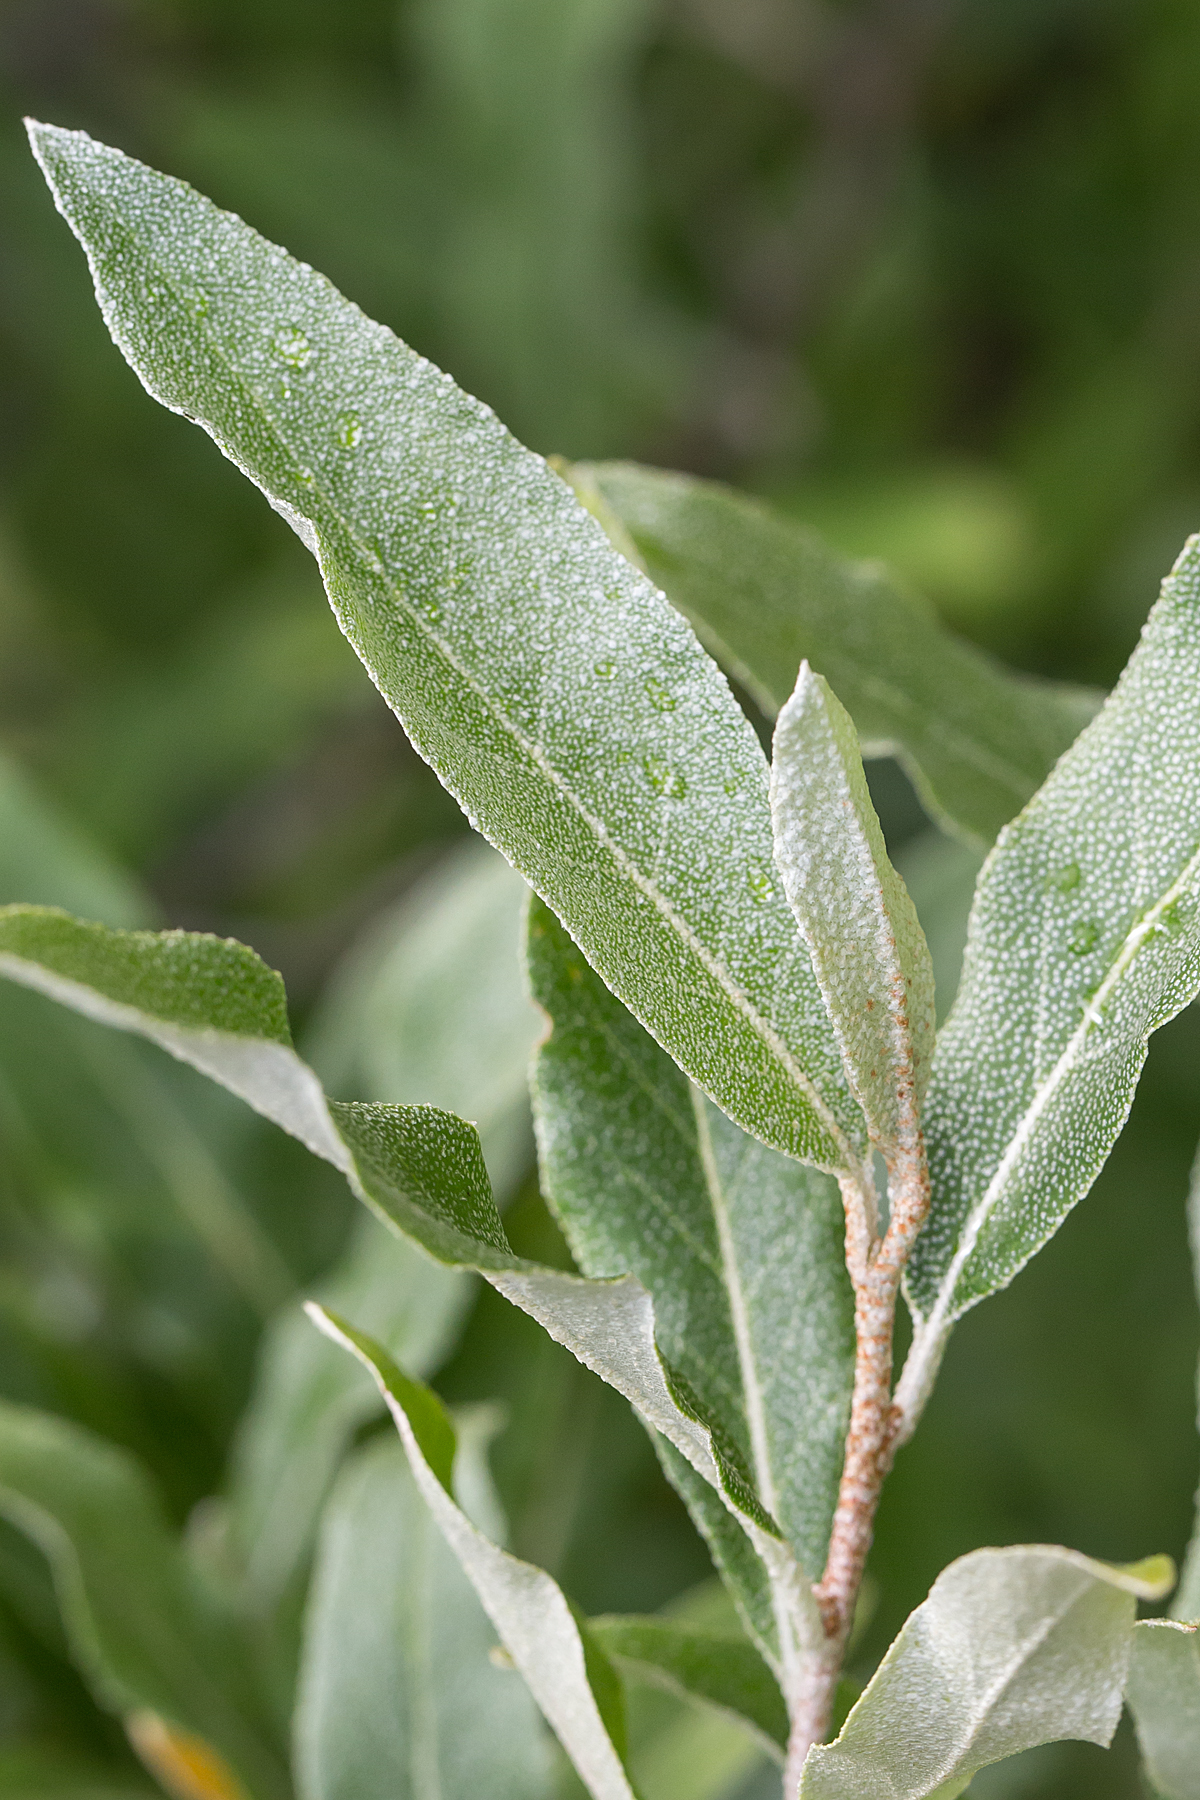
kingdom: Plantae
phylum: Tracheophyta
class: Magnoliopsida
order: Rosales
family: Elaeagnaceae
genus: Elaeagnus
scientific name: Elaeagnus umbellata
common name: Autumn olive
